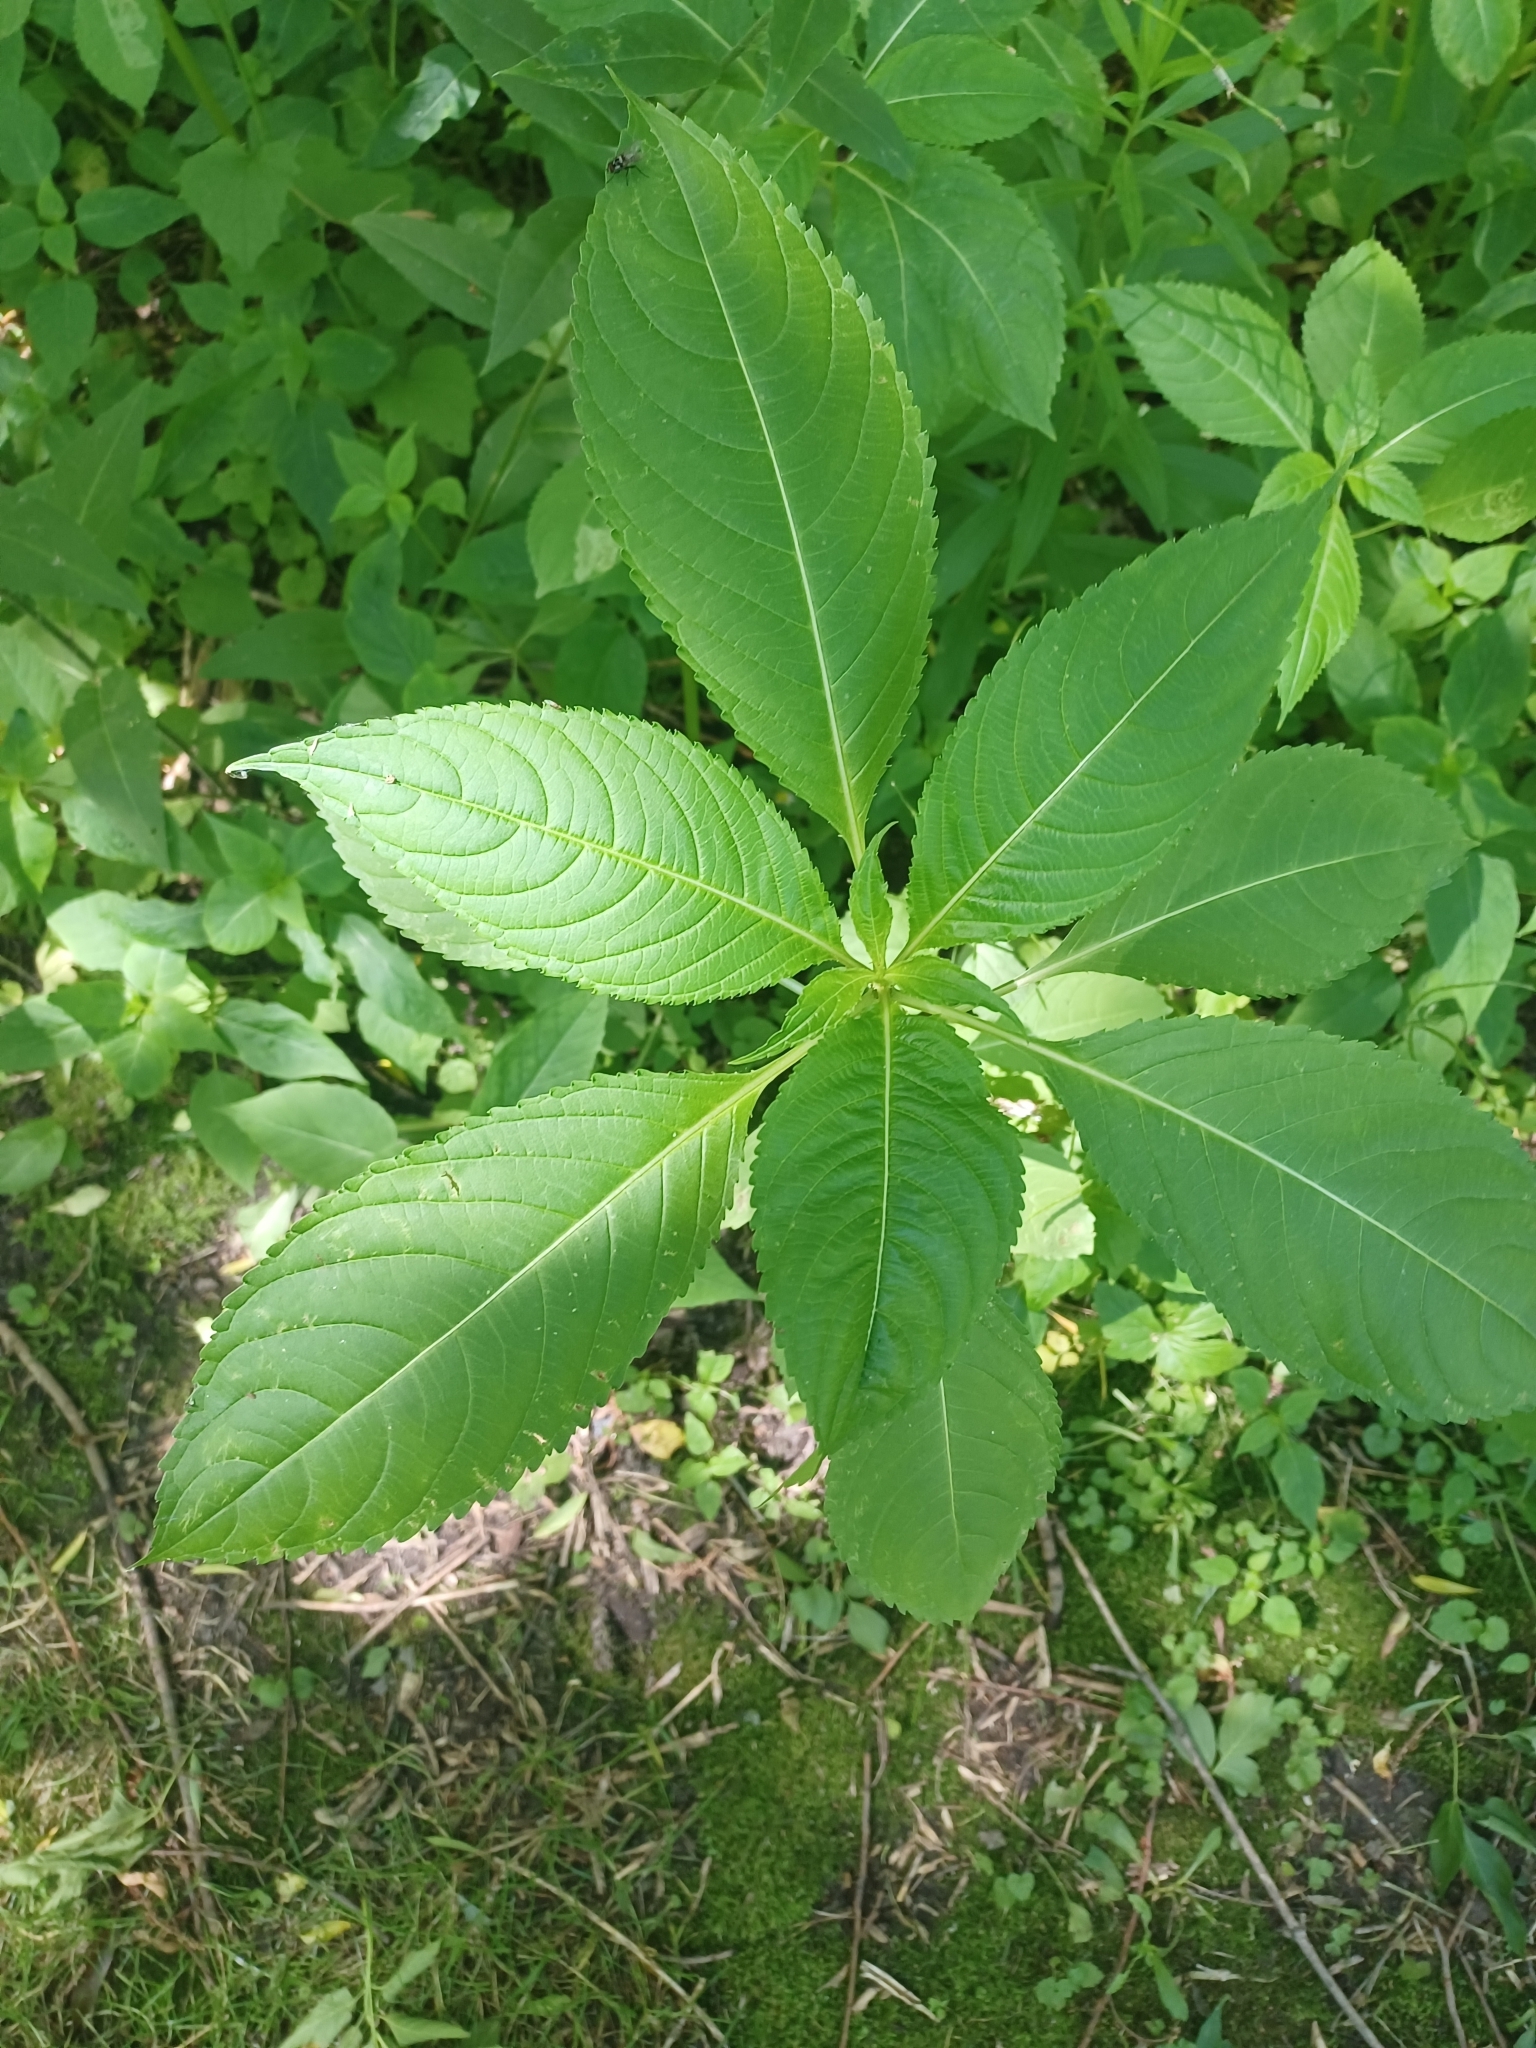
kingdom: Plantae
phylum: Tracheophyta
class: Magnoliopsida
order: Ericales
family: Balsaminaceae
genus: Impatiens
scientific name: Impatiens glandulifera
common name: Himalayan balsam
